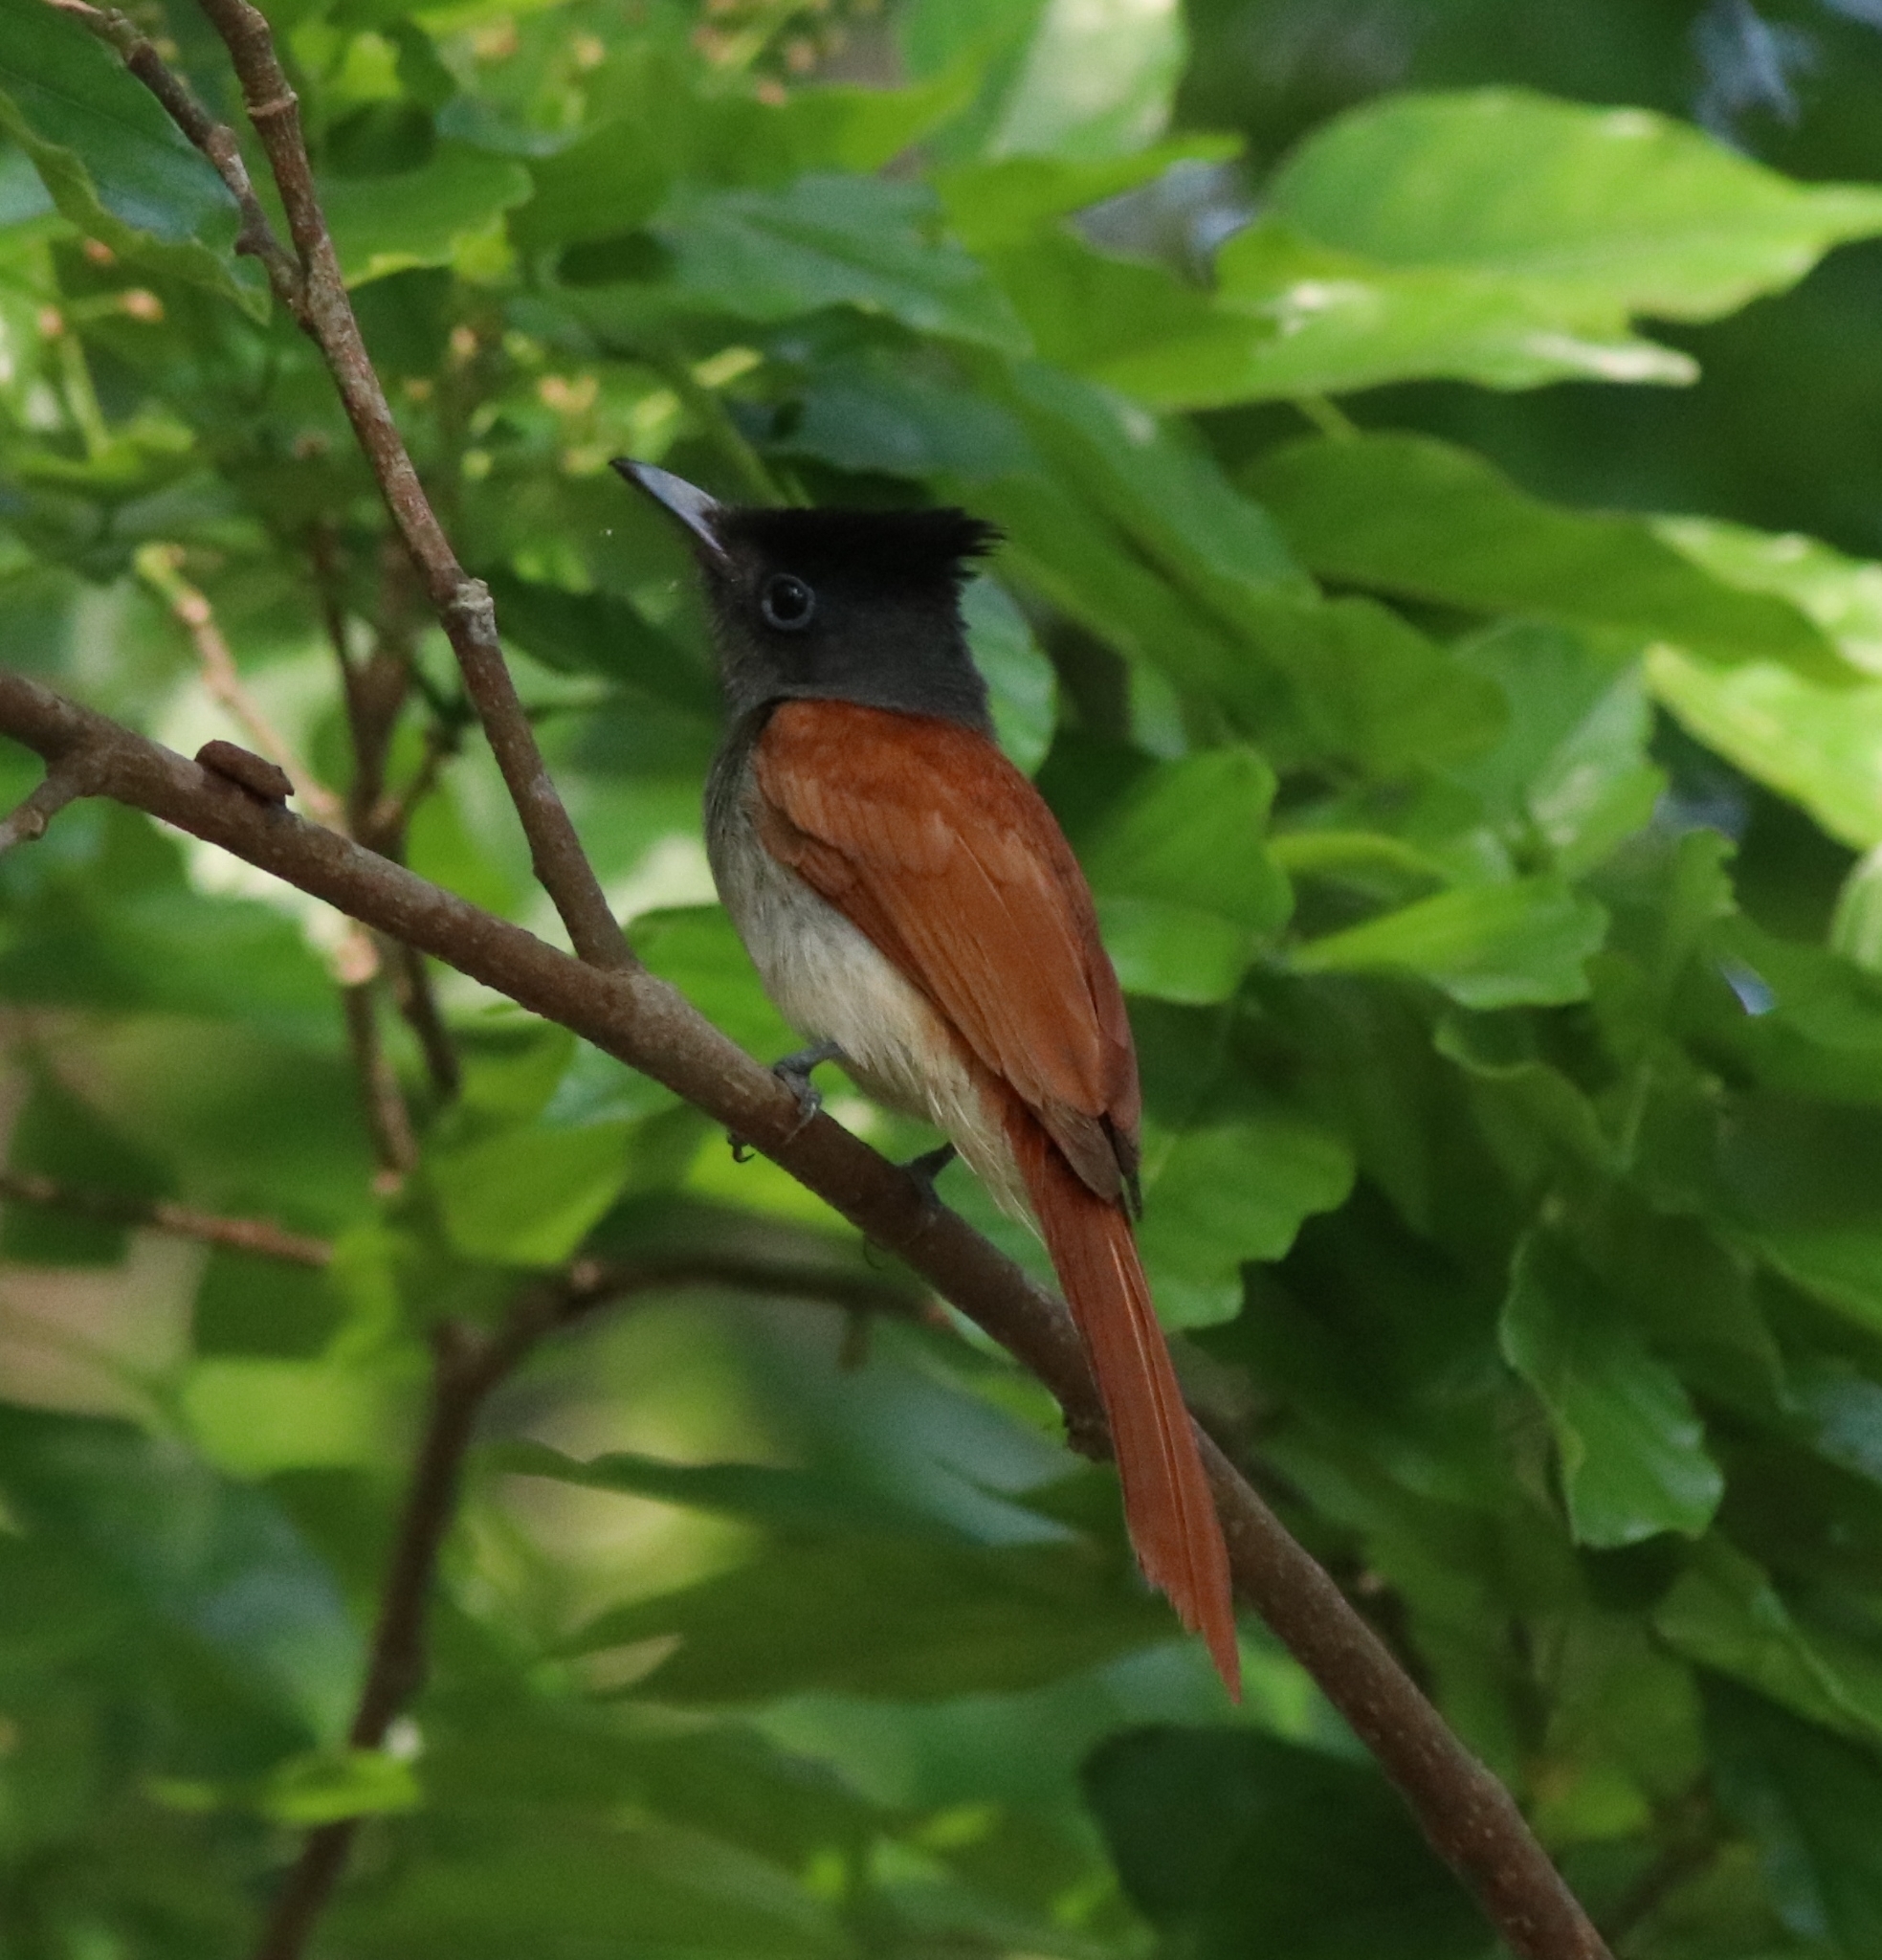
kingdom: Animalia
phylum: Chordata
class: Aves
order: Passeriformes
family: Monarchidae
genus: Terpsiphone
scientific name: Terpsiphone paradisi
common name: Indian paradise flycatcher
